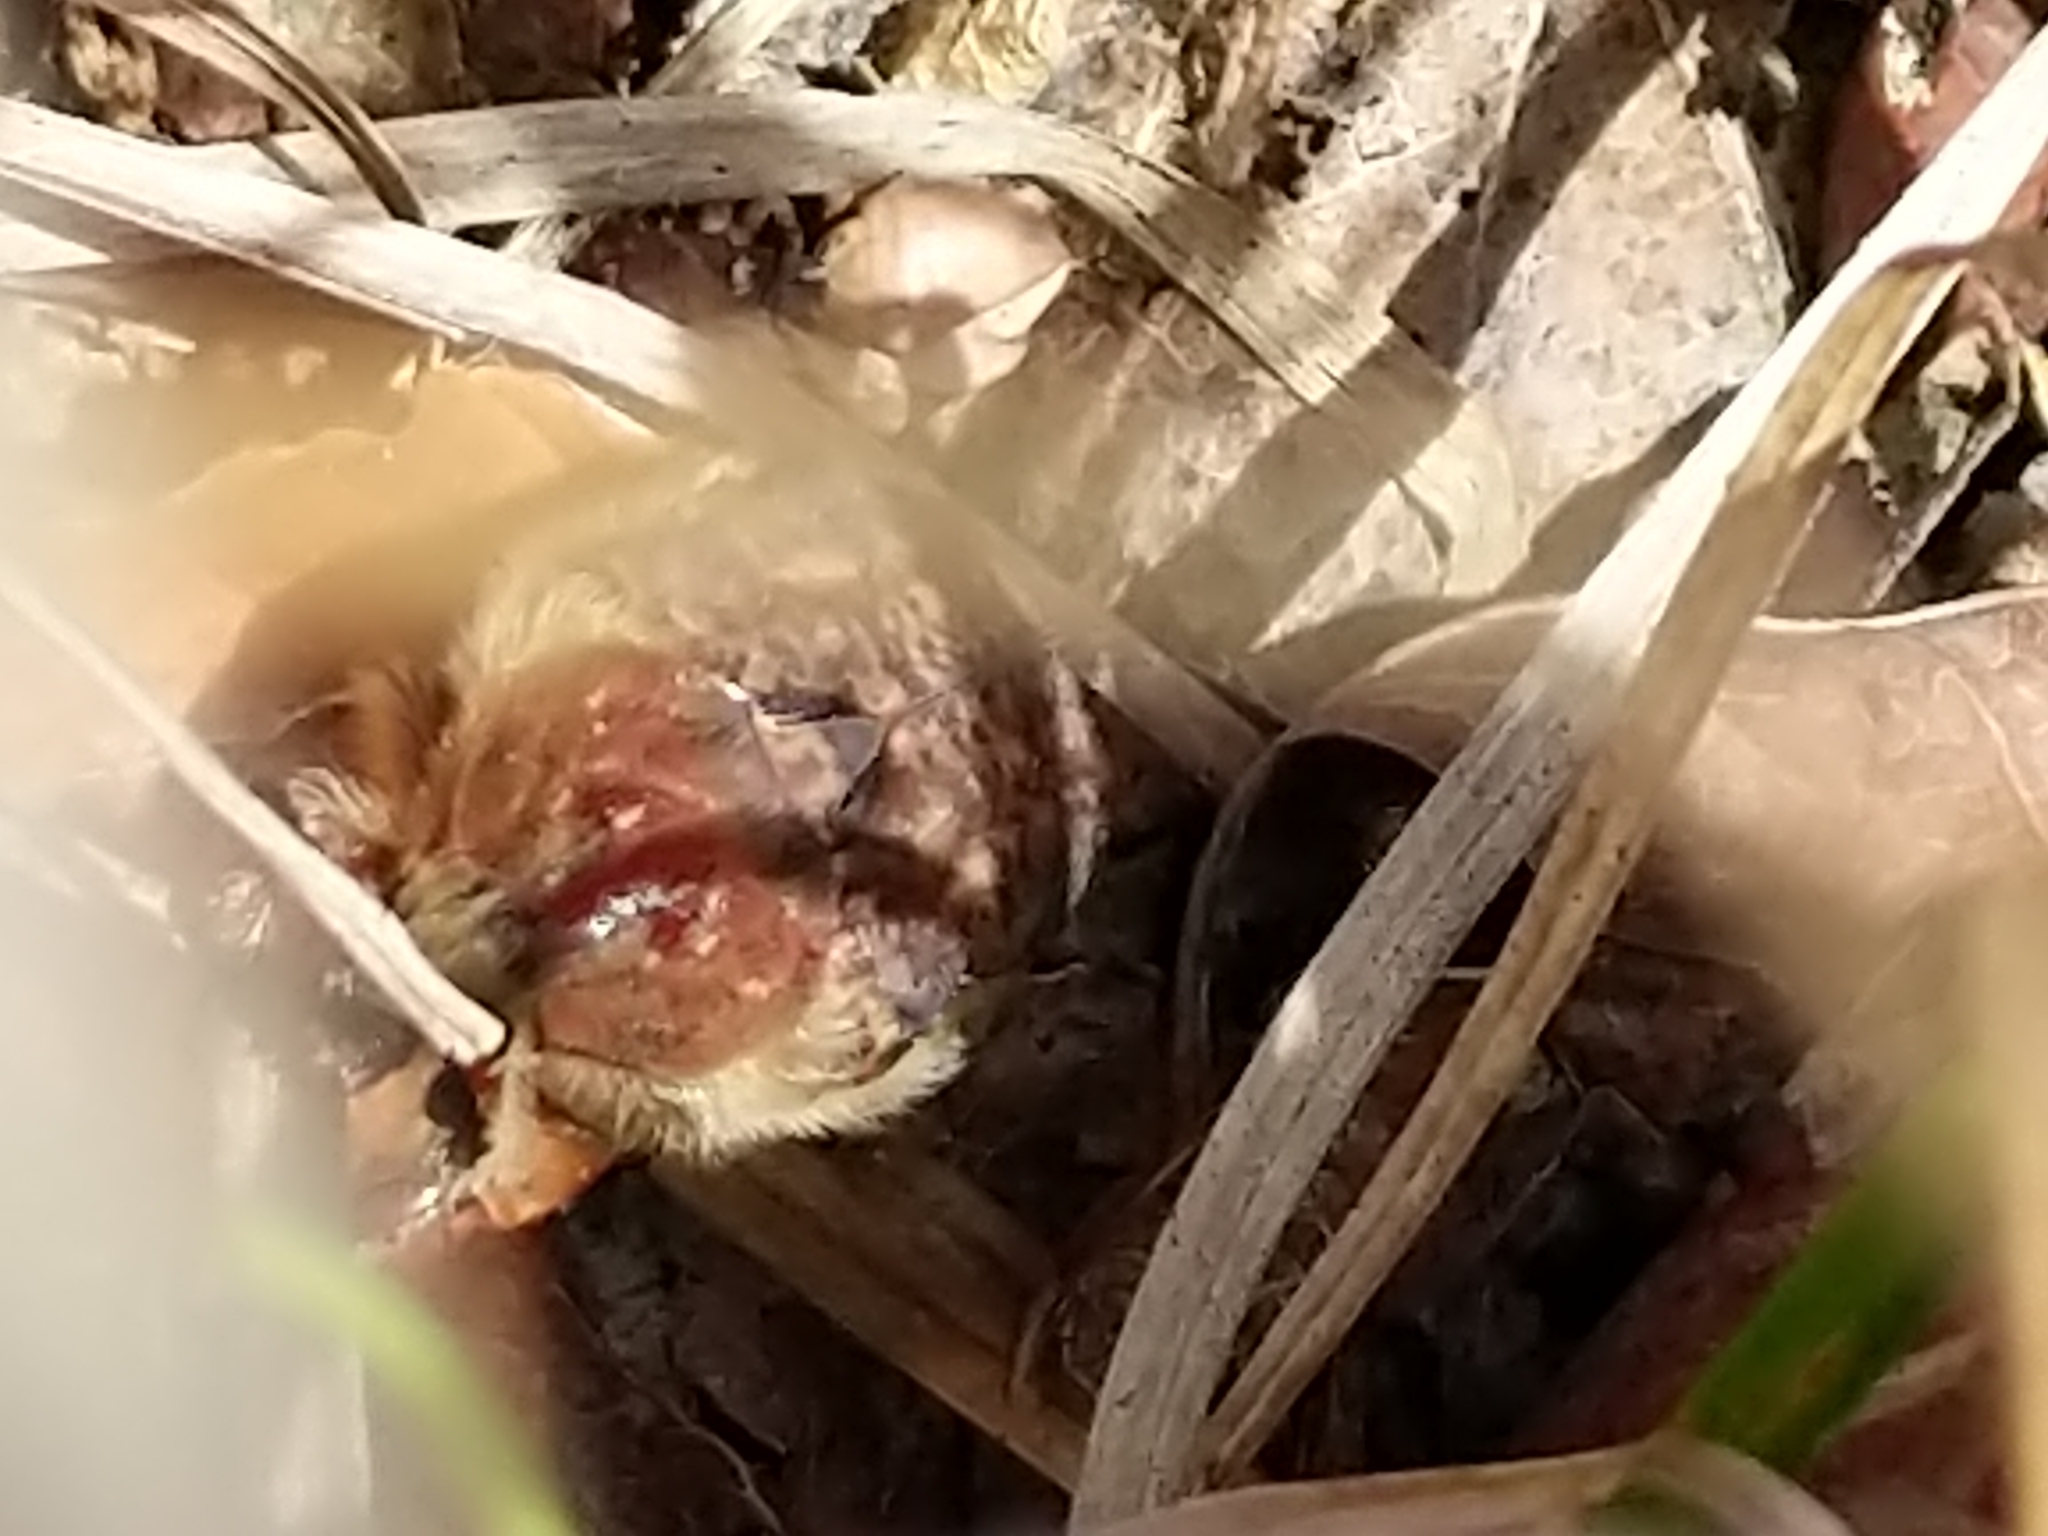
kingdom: Animalia
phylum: Arthropoda
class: Insecta
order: Coleoptera
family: Scarabaeidae
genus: Euphoria
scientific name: Euphoria inda
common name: Bumble flower beetle
